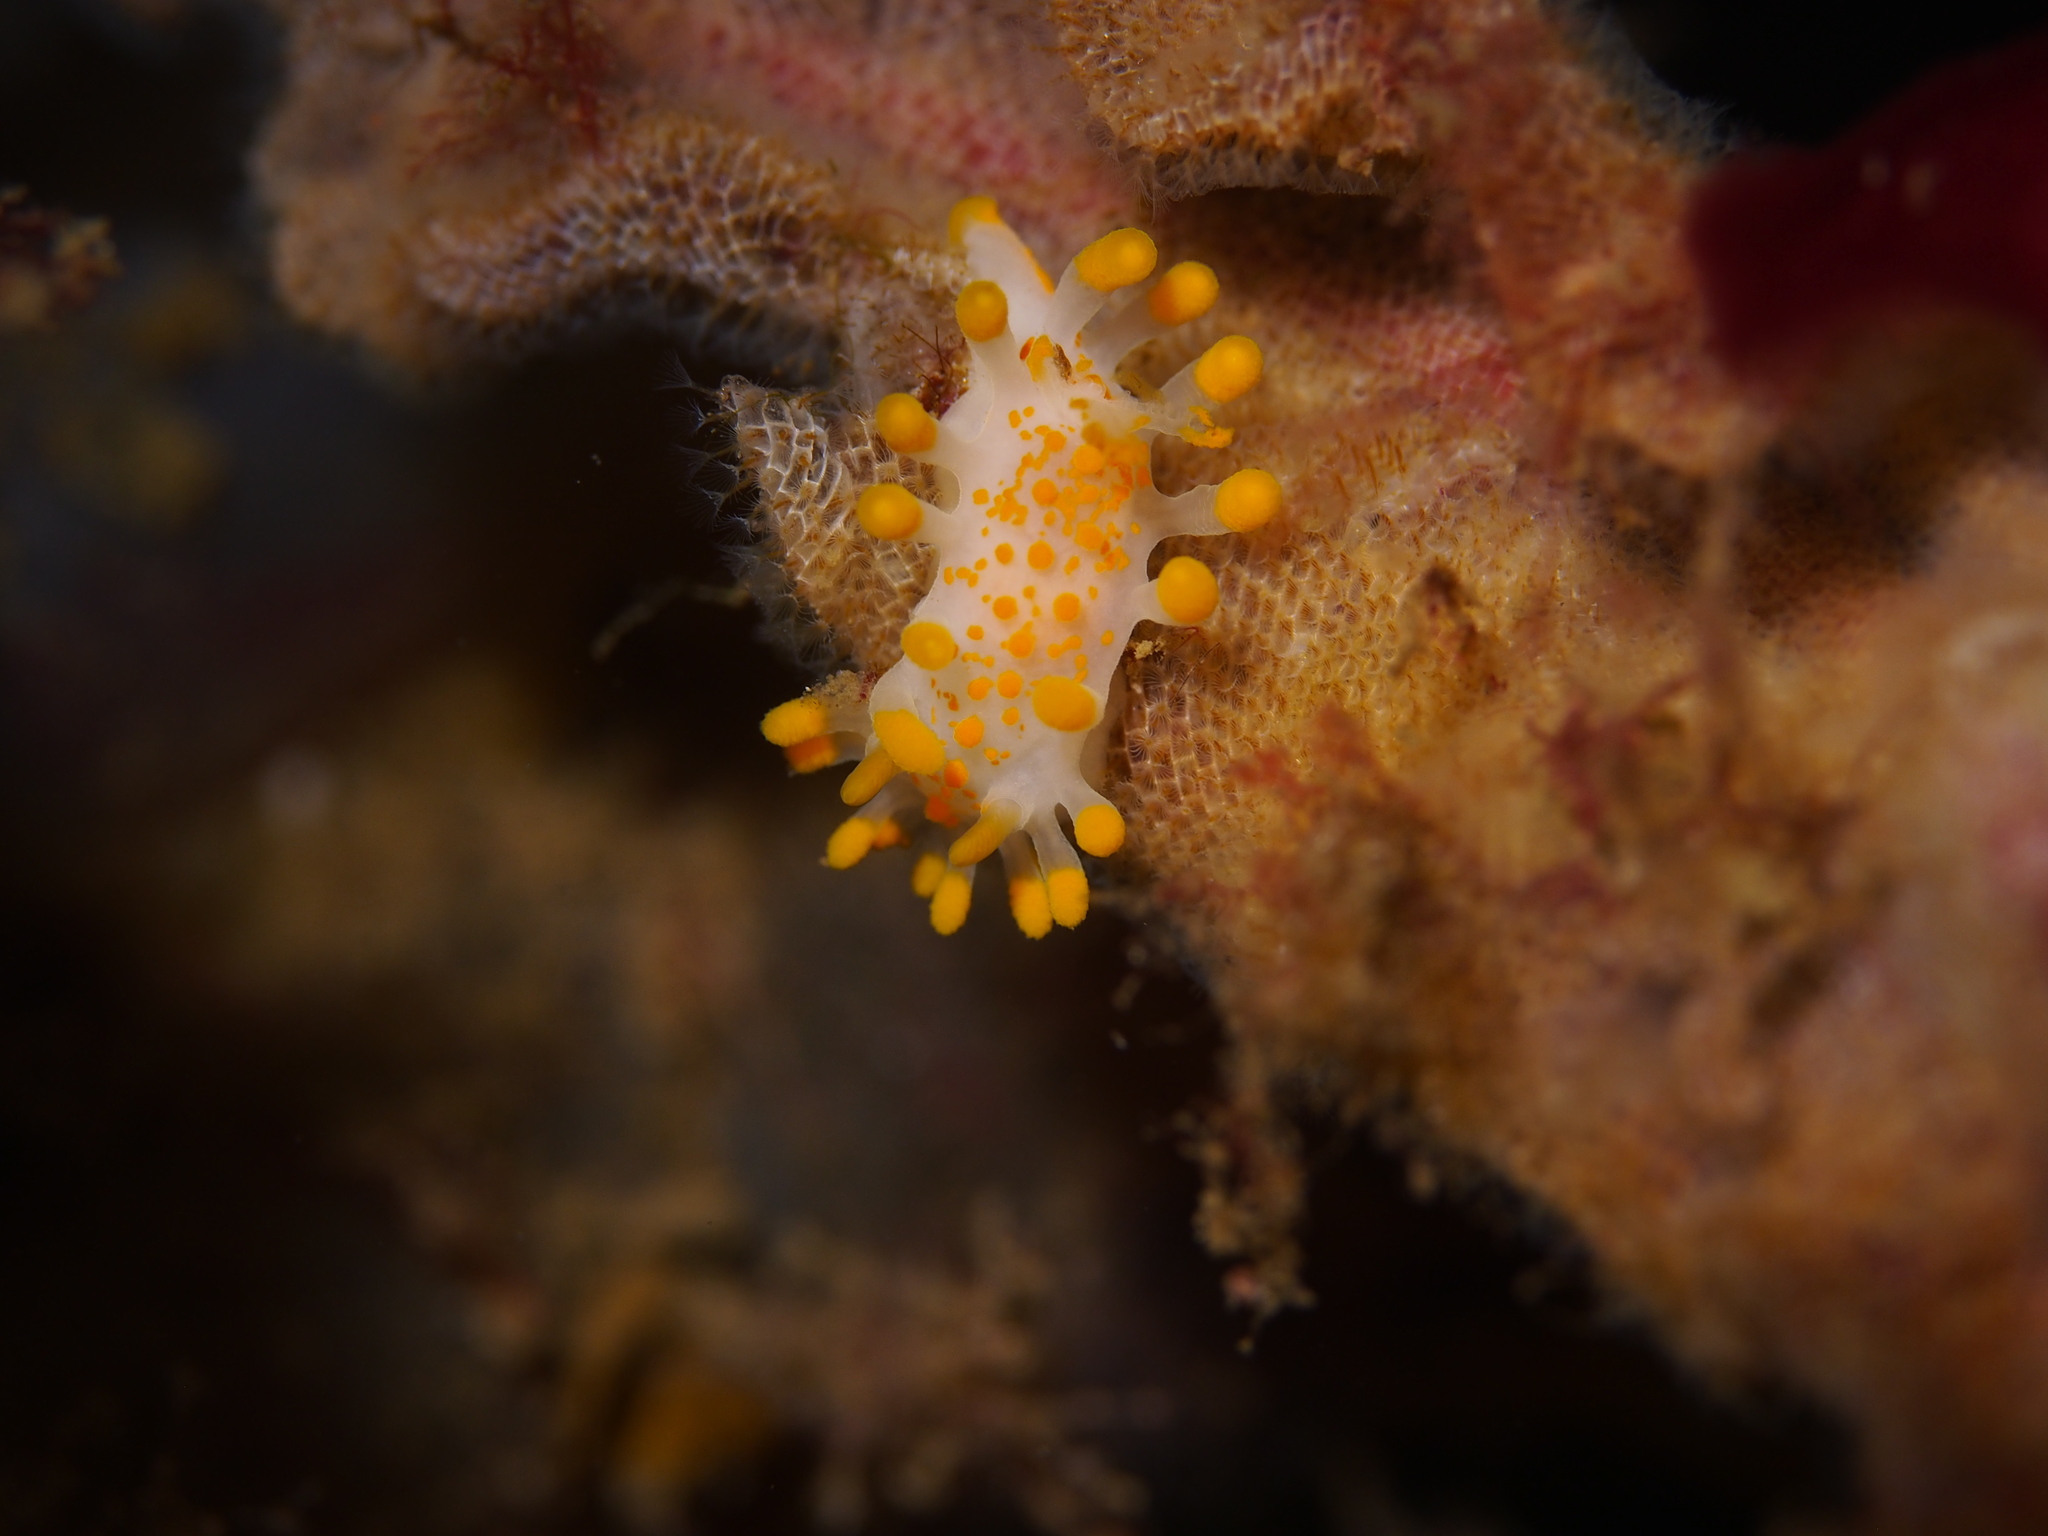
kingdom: Animalia
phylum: Mollusca
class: Gastropoda
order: Nudibranchia
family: Polyceridae
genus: Limacia
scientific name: Limacia clavigera
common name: Orange-clubbed sea slug
